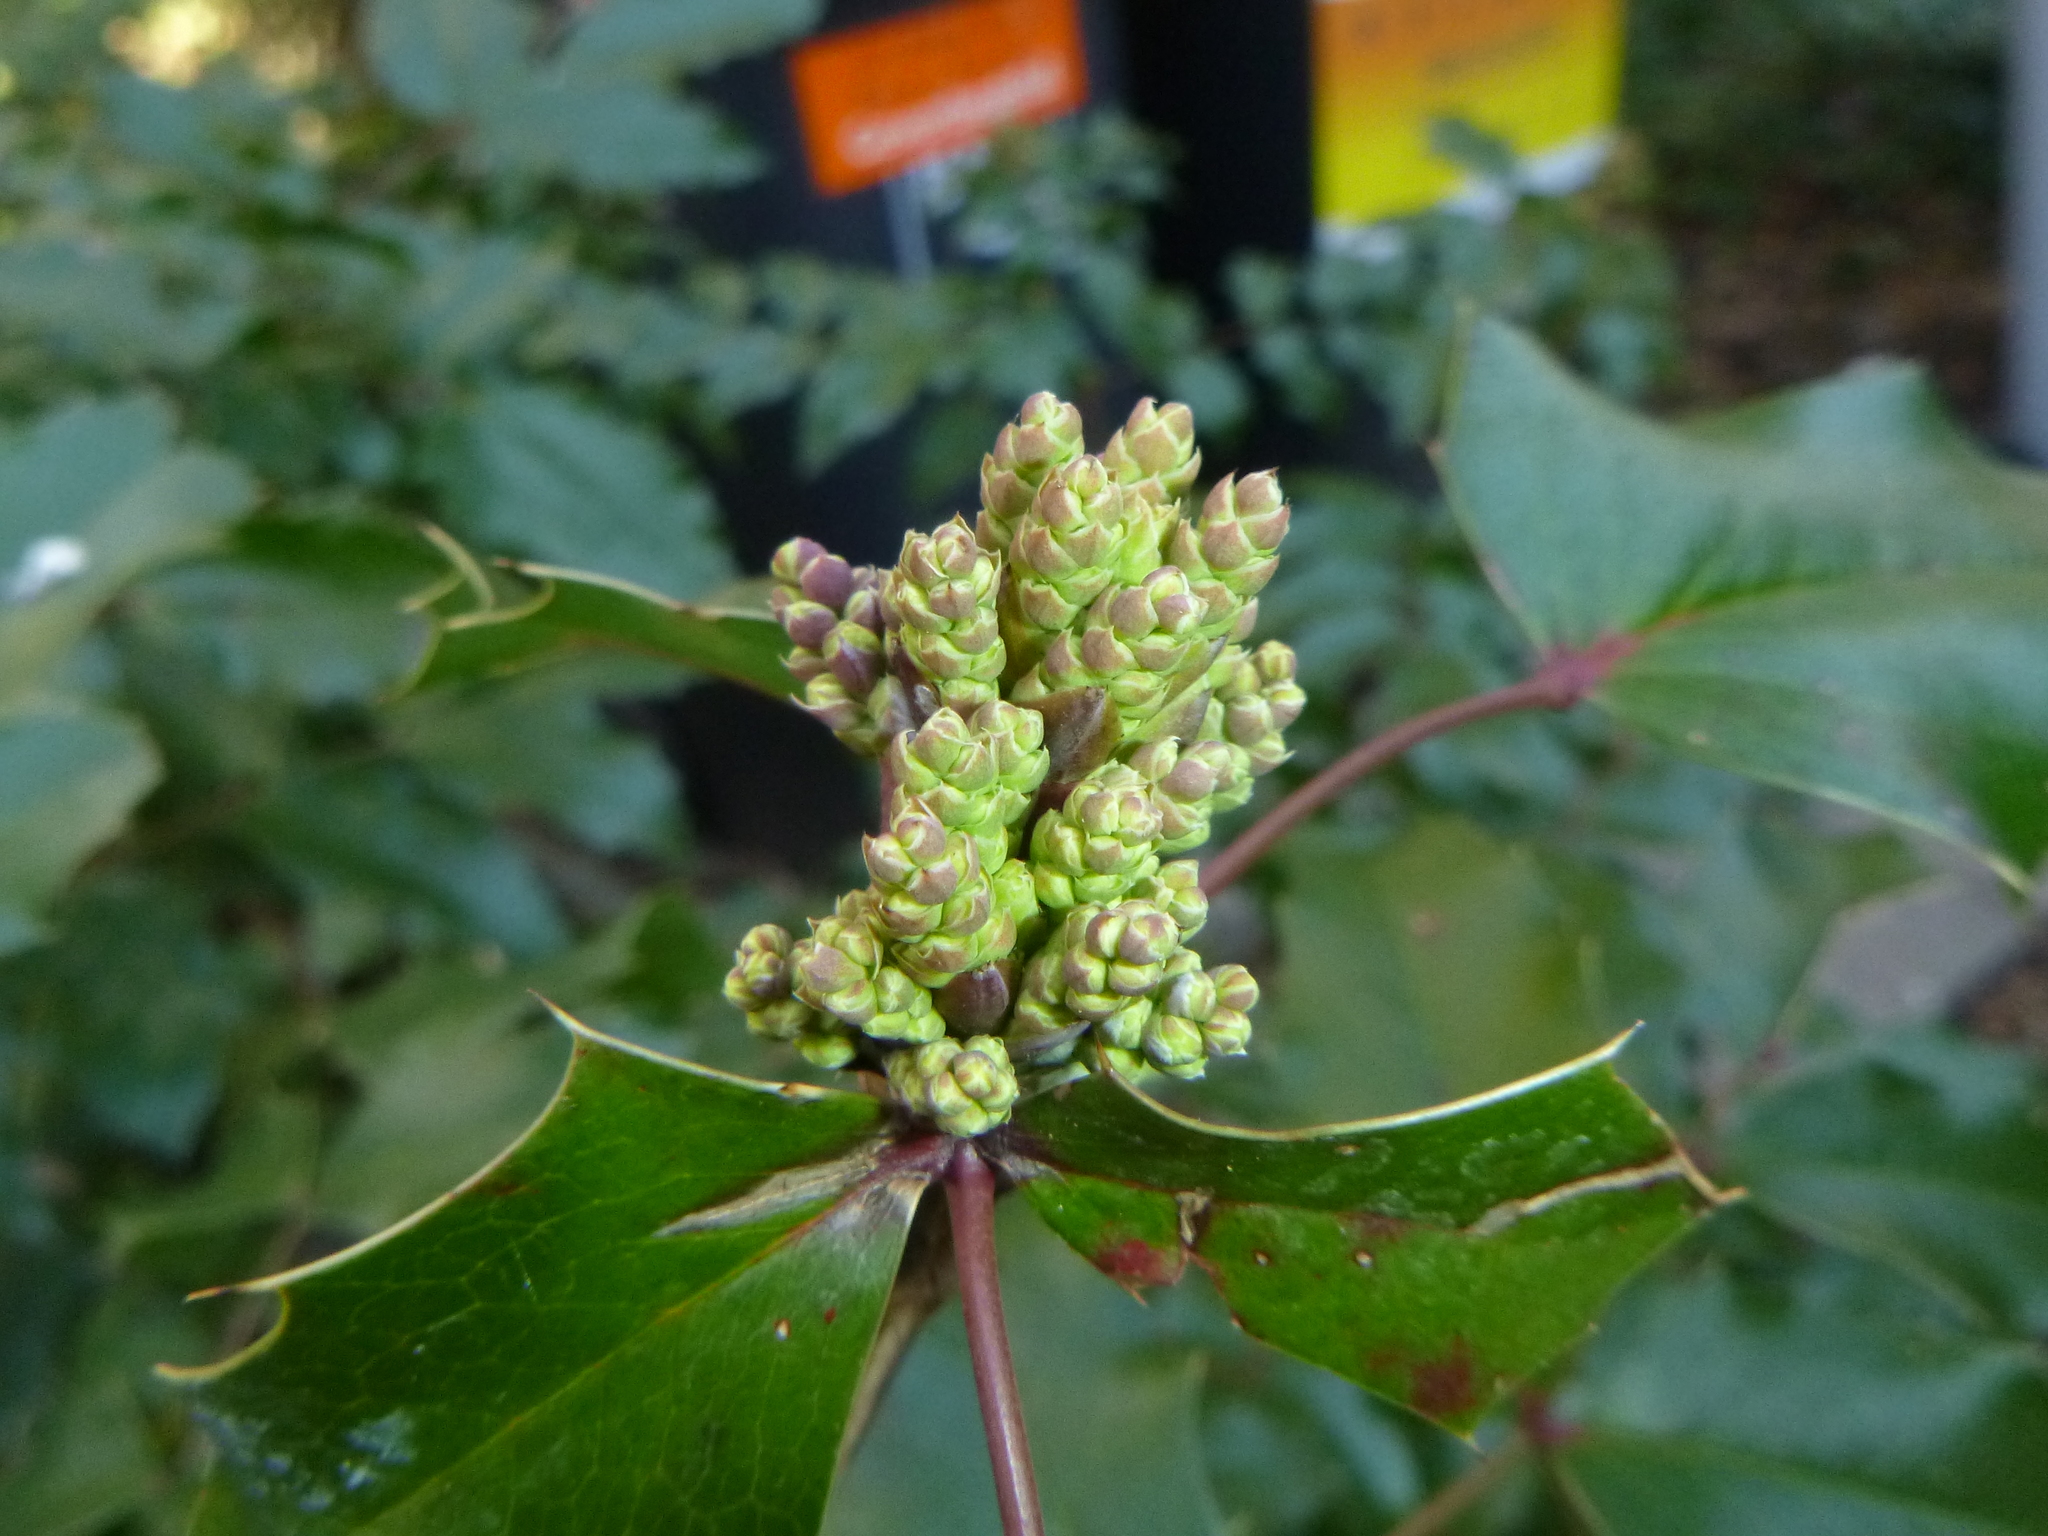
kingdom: Plantae
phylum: Tracheophyta
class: Magnoliopsida
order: Ranunculales
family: Berberidaceae
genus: Mahonia
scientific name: Mahonia aquifolium
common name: Oregon-grape
